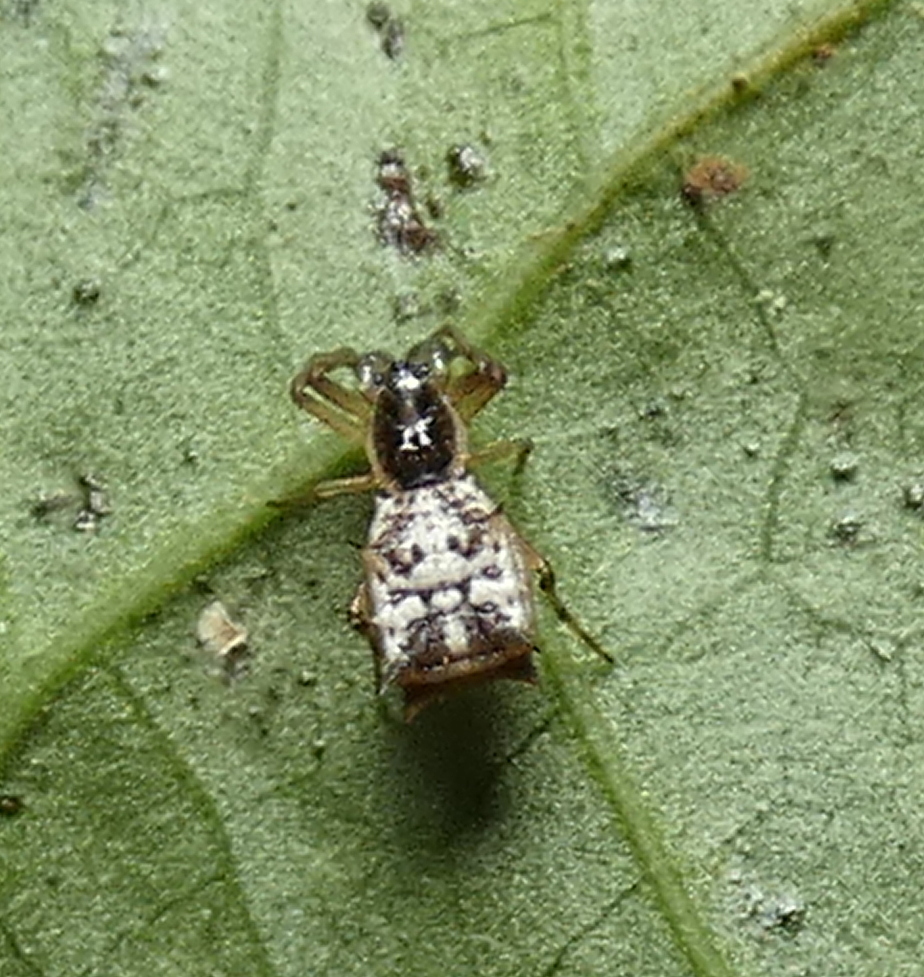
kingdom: Animalia
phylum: Arthropoda
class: Arachnida
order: Araneae
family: Araneidae
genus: Micrathena
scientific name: Micrathena picta
